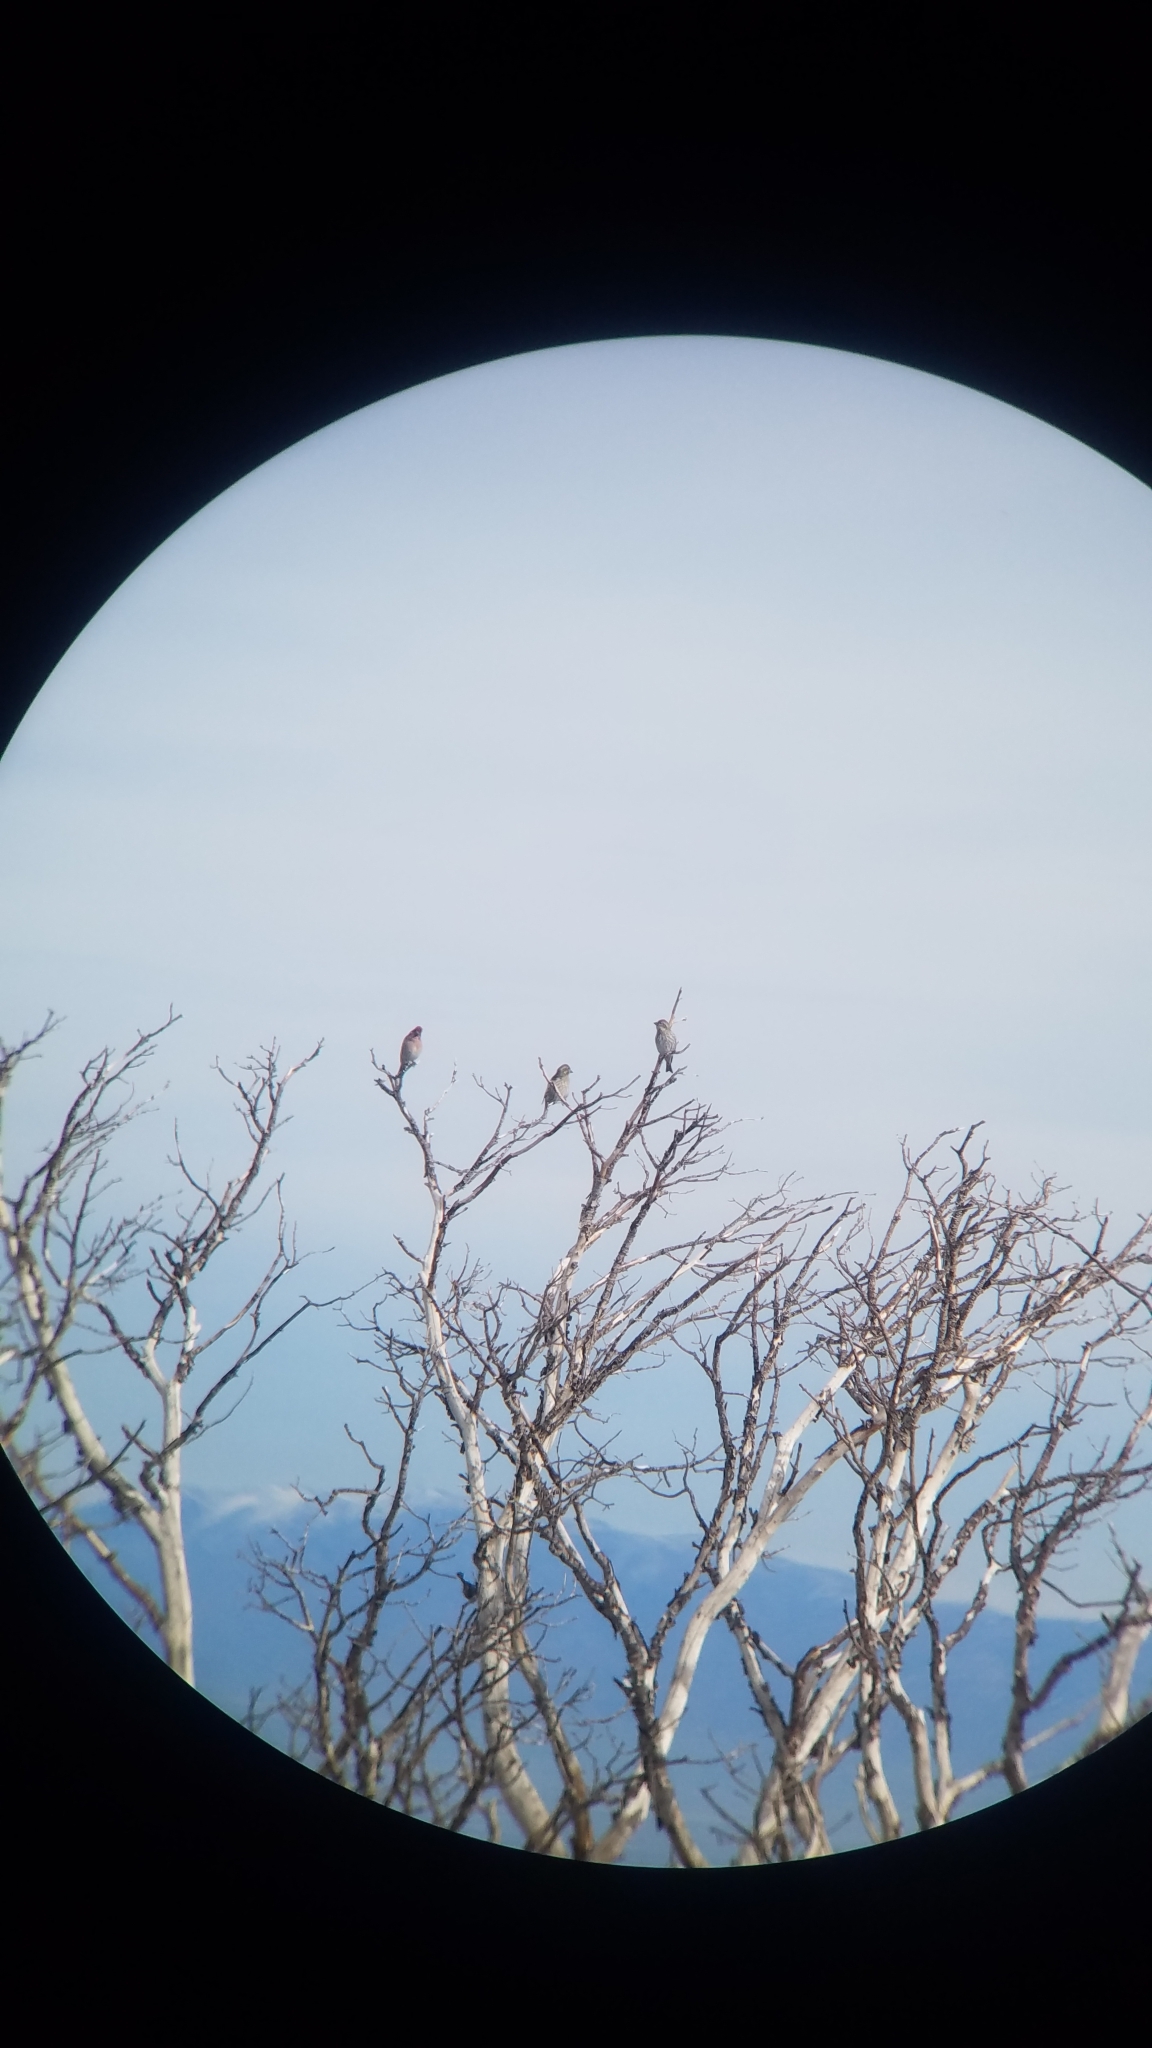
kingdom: Animalia
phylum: Chordata
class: Aves
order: Passeriformes
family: Fringillidae
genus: Haemorhous
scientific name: Haemorhous cassinii
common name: Cassin's finch
